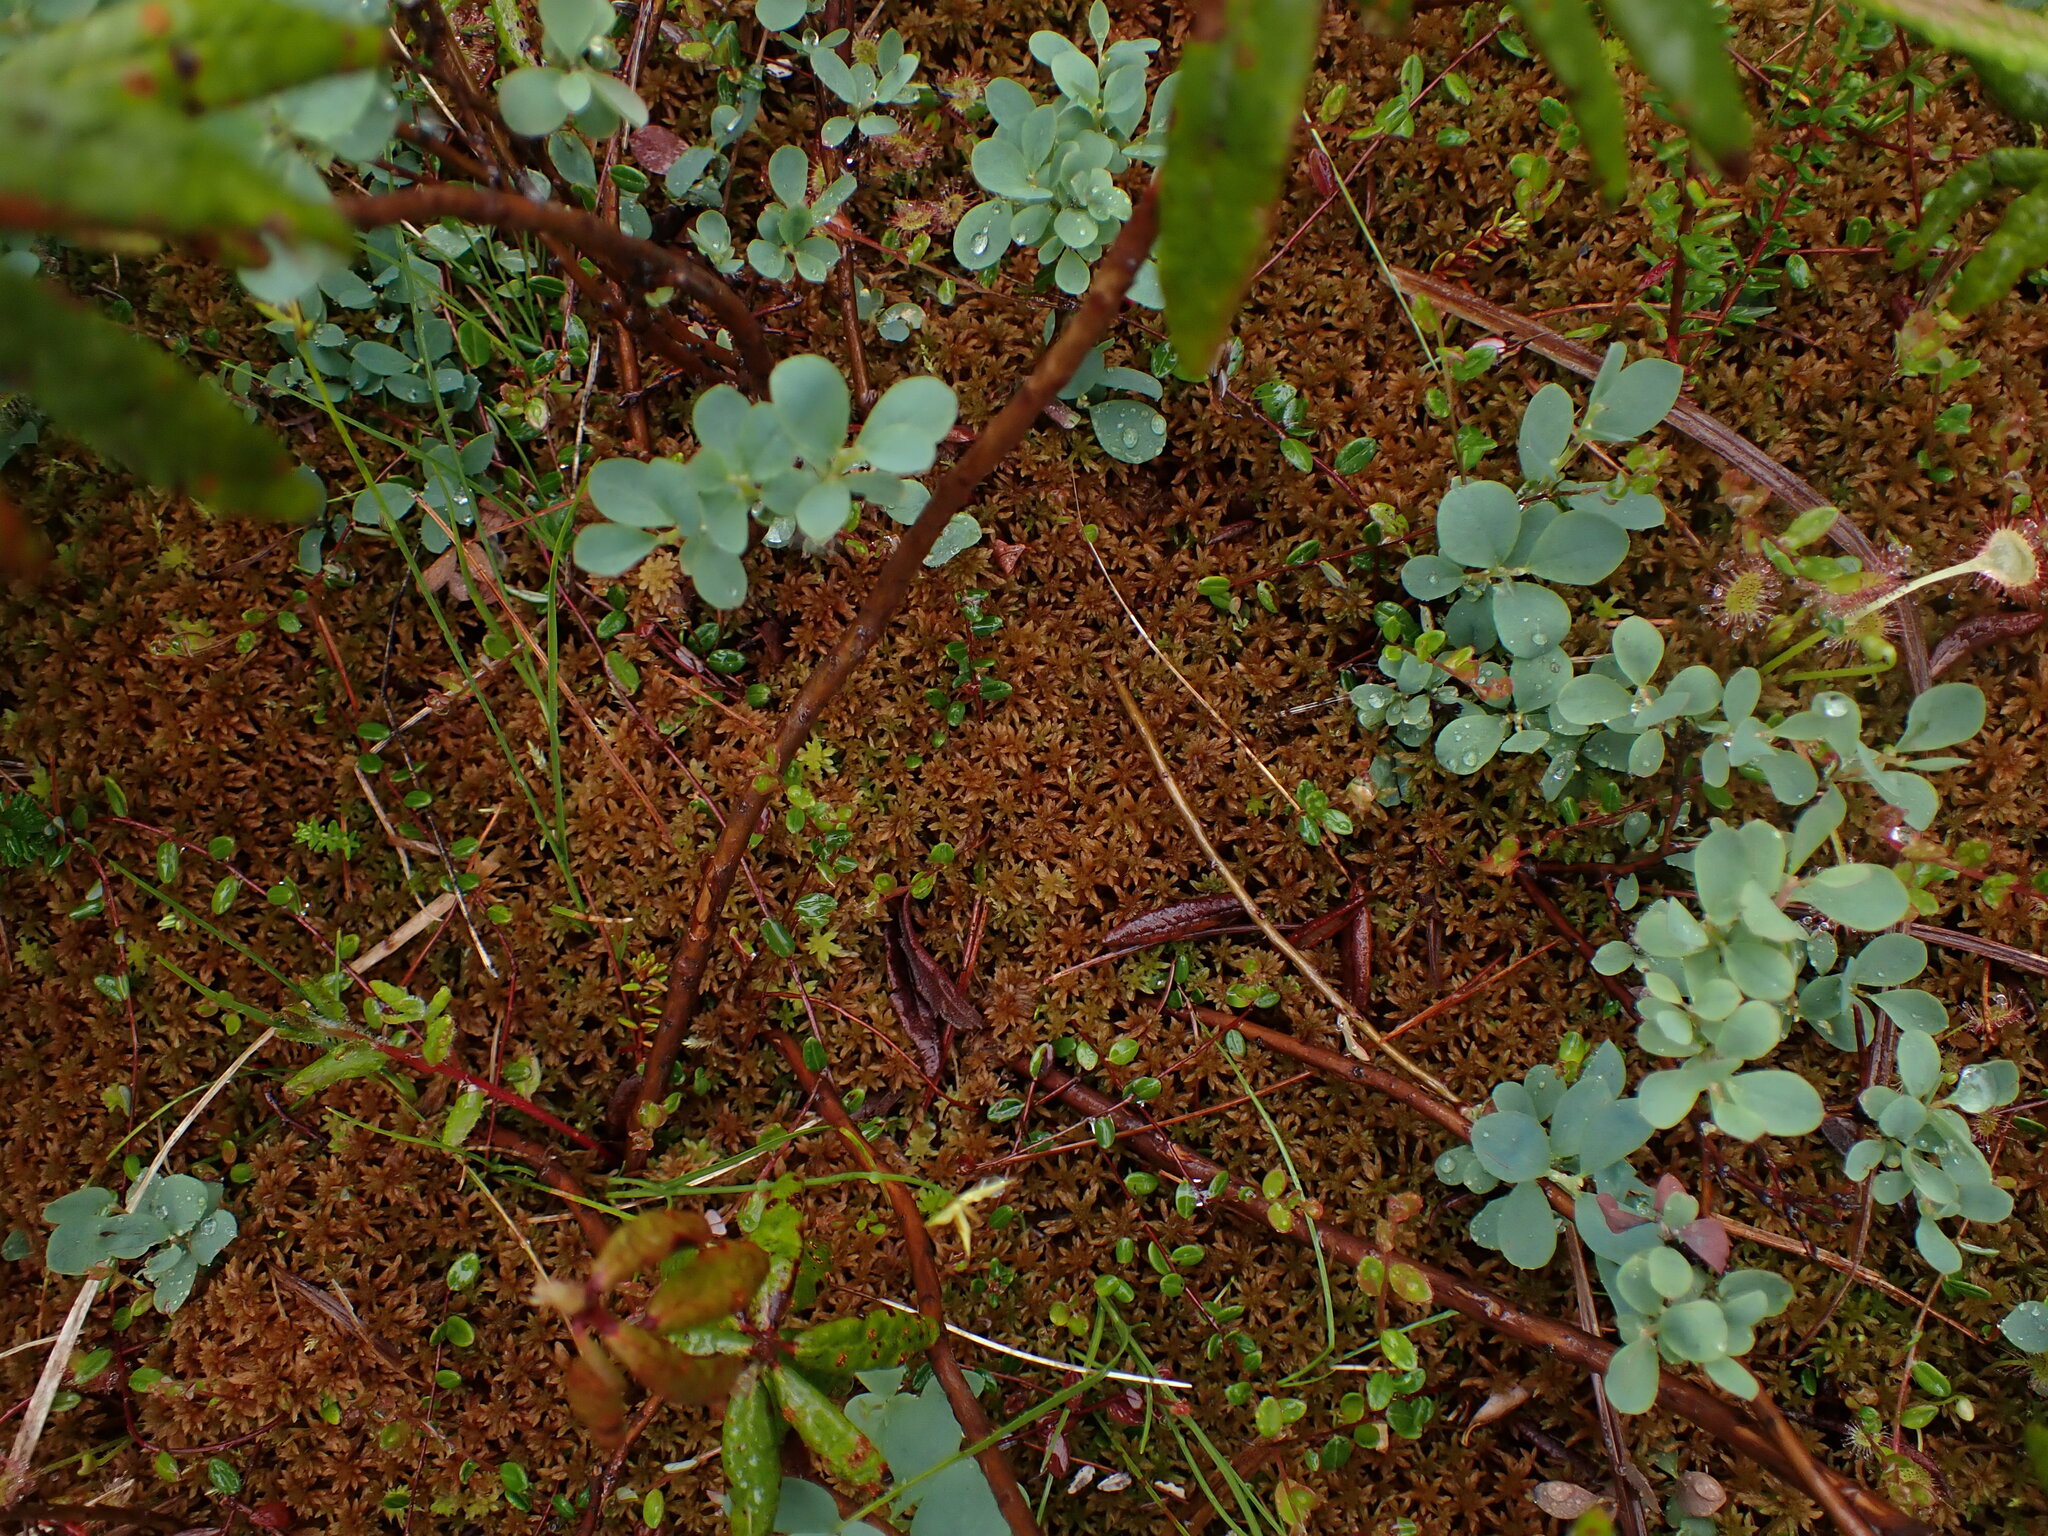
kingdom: Plantae
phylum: Bryophyta
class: Sphagnopsida
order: Sphagnales
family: Sphagnaceae
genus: Sphagnum
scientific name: Sphagnum fuscum
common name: Brown peat moss
